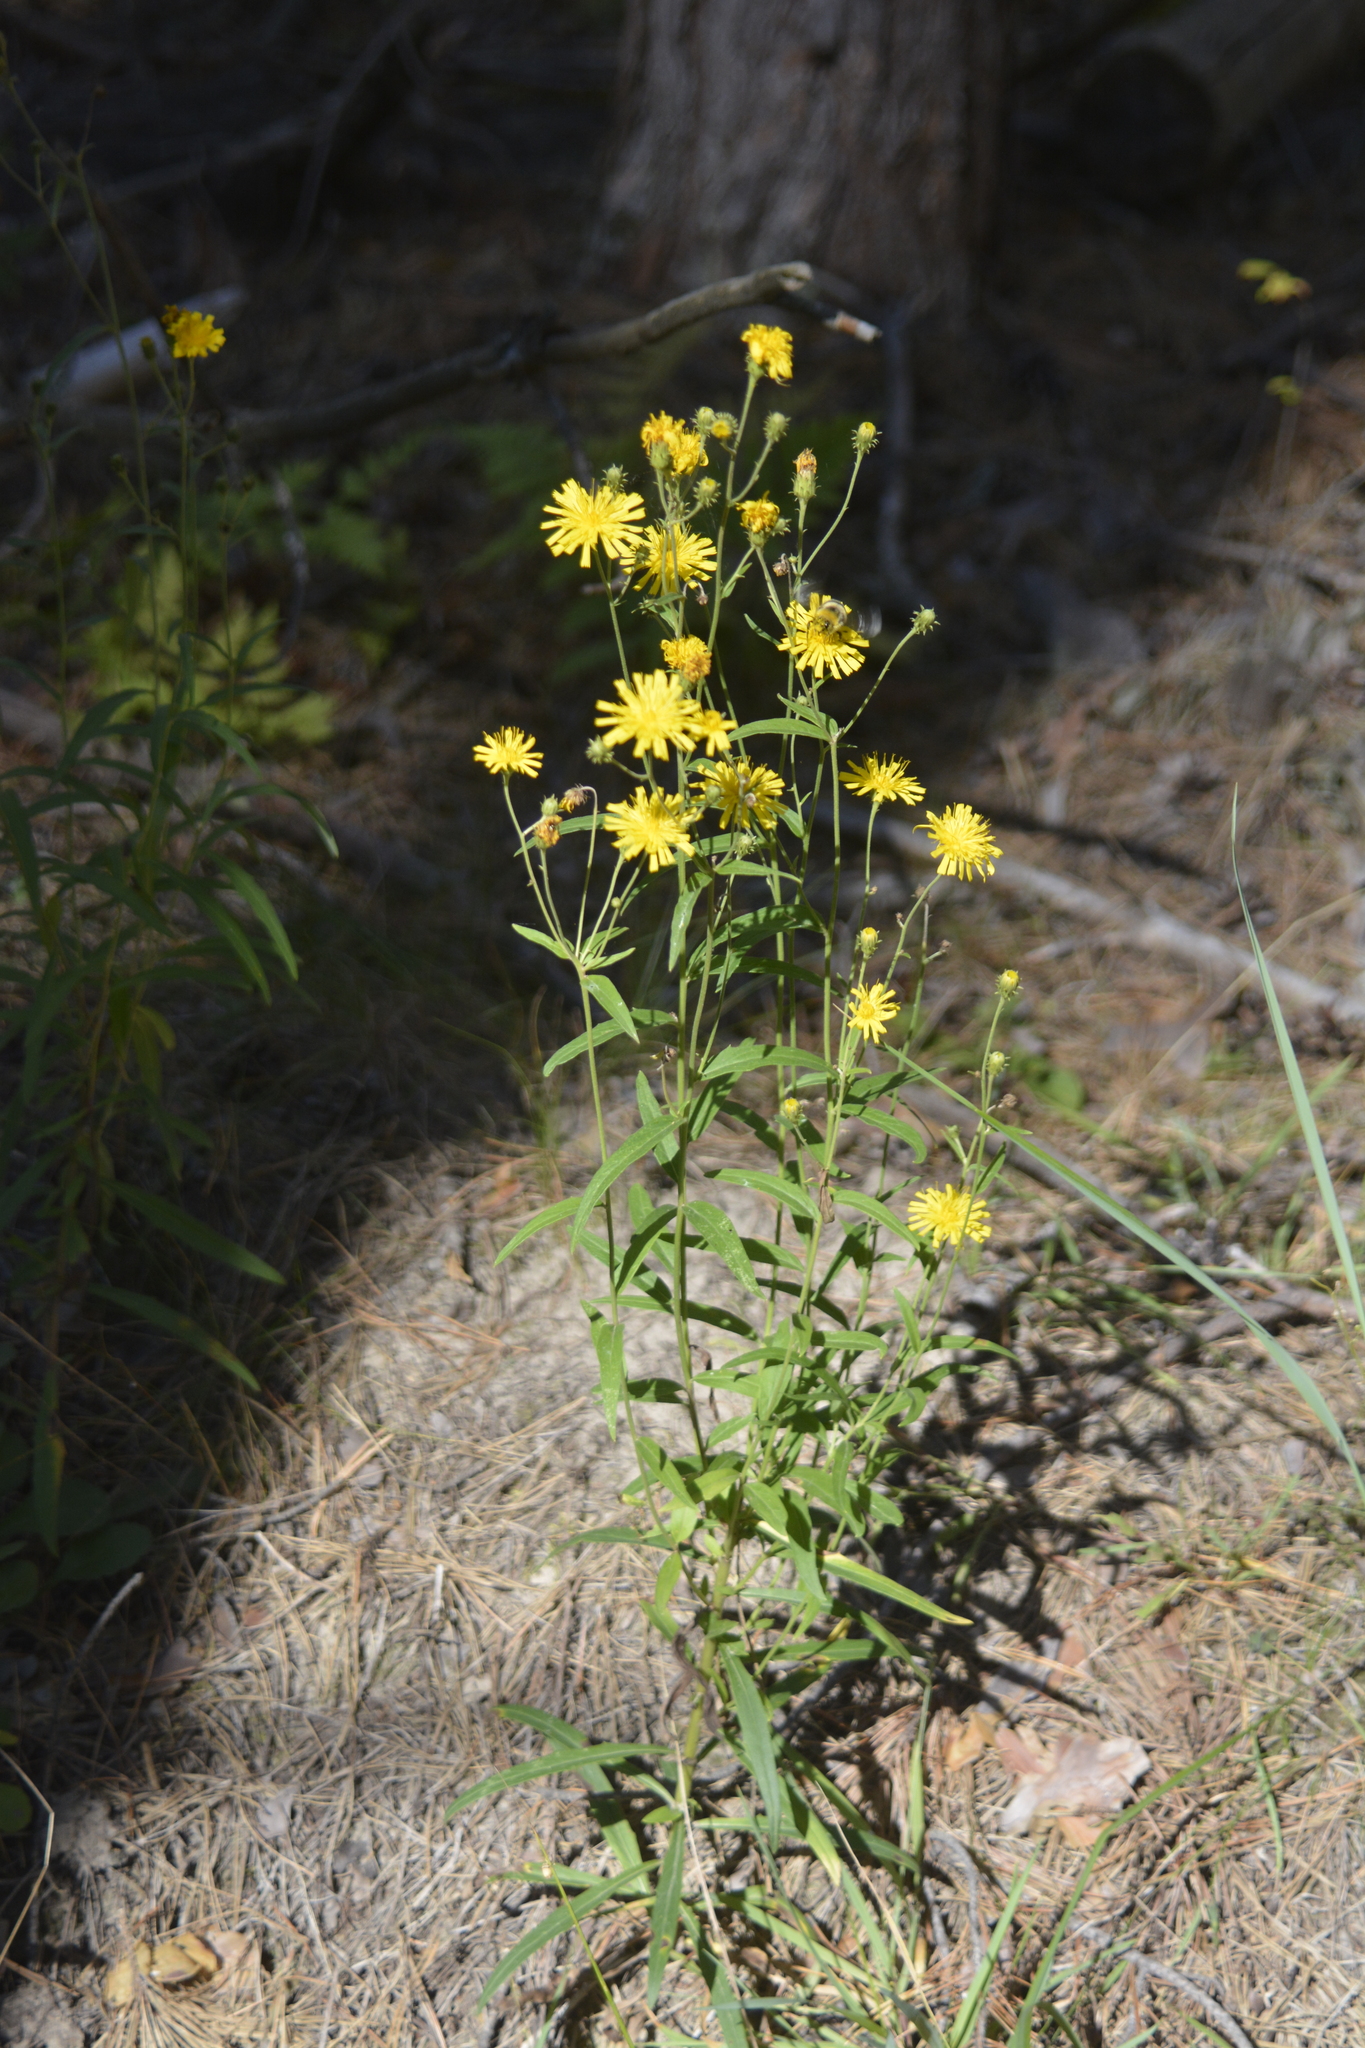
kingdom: Plantae
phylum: Tracheophyta
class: Magnoliopsida
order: Asterales
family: Asteraceae
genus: Hieracium
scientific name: Hieracium umbellatum
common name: Northern hawkweed
